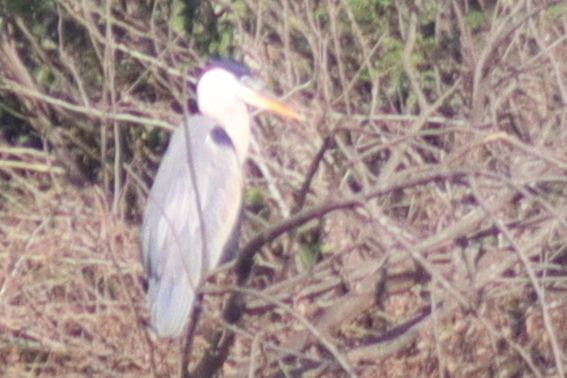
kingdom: Animalia
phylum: Chordata
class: Aves
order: Pelecaniformes
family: Ardeidae
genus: Ardea
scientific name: Ardea cocoi
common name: Cocoi heron
